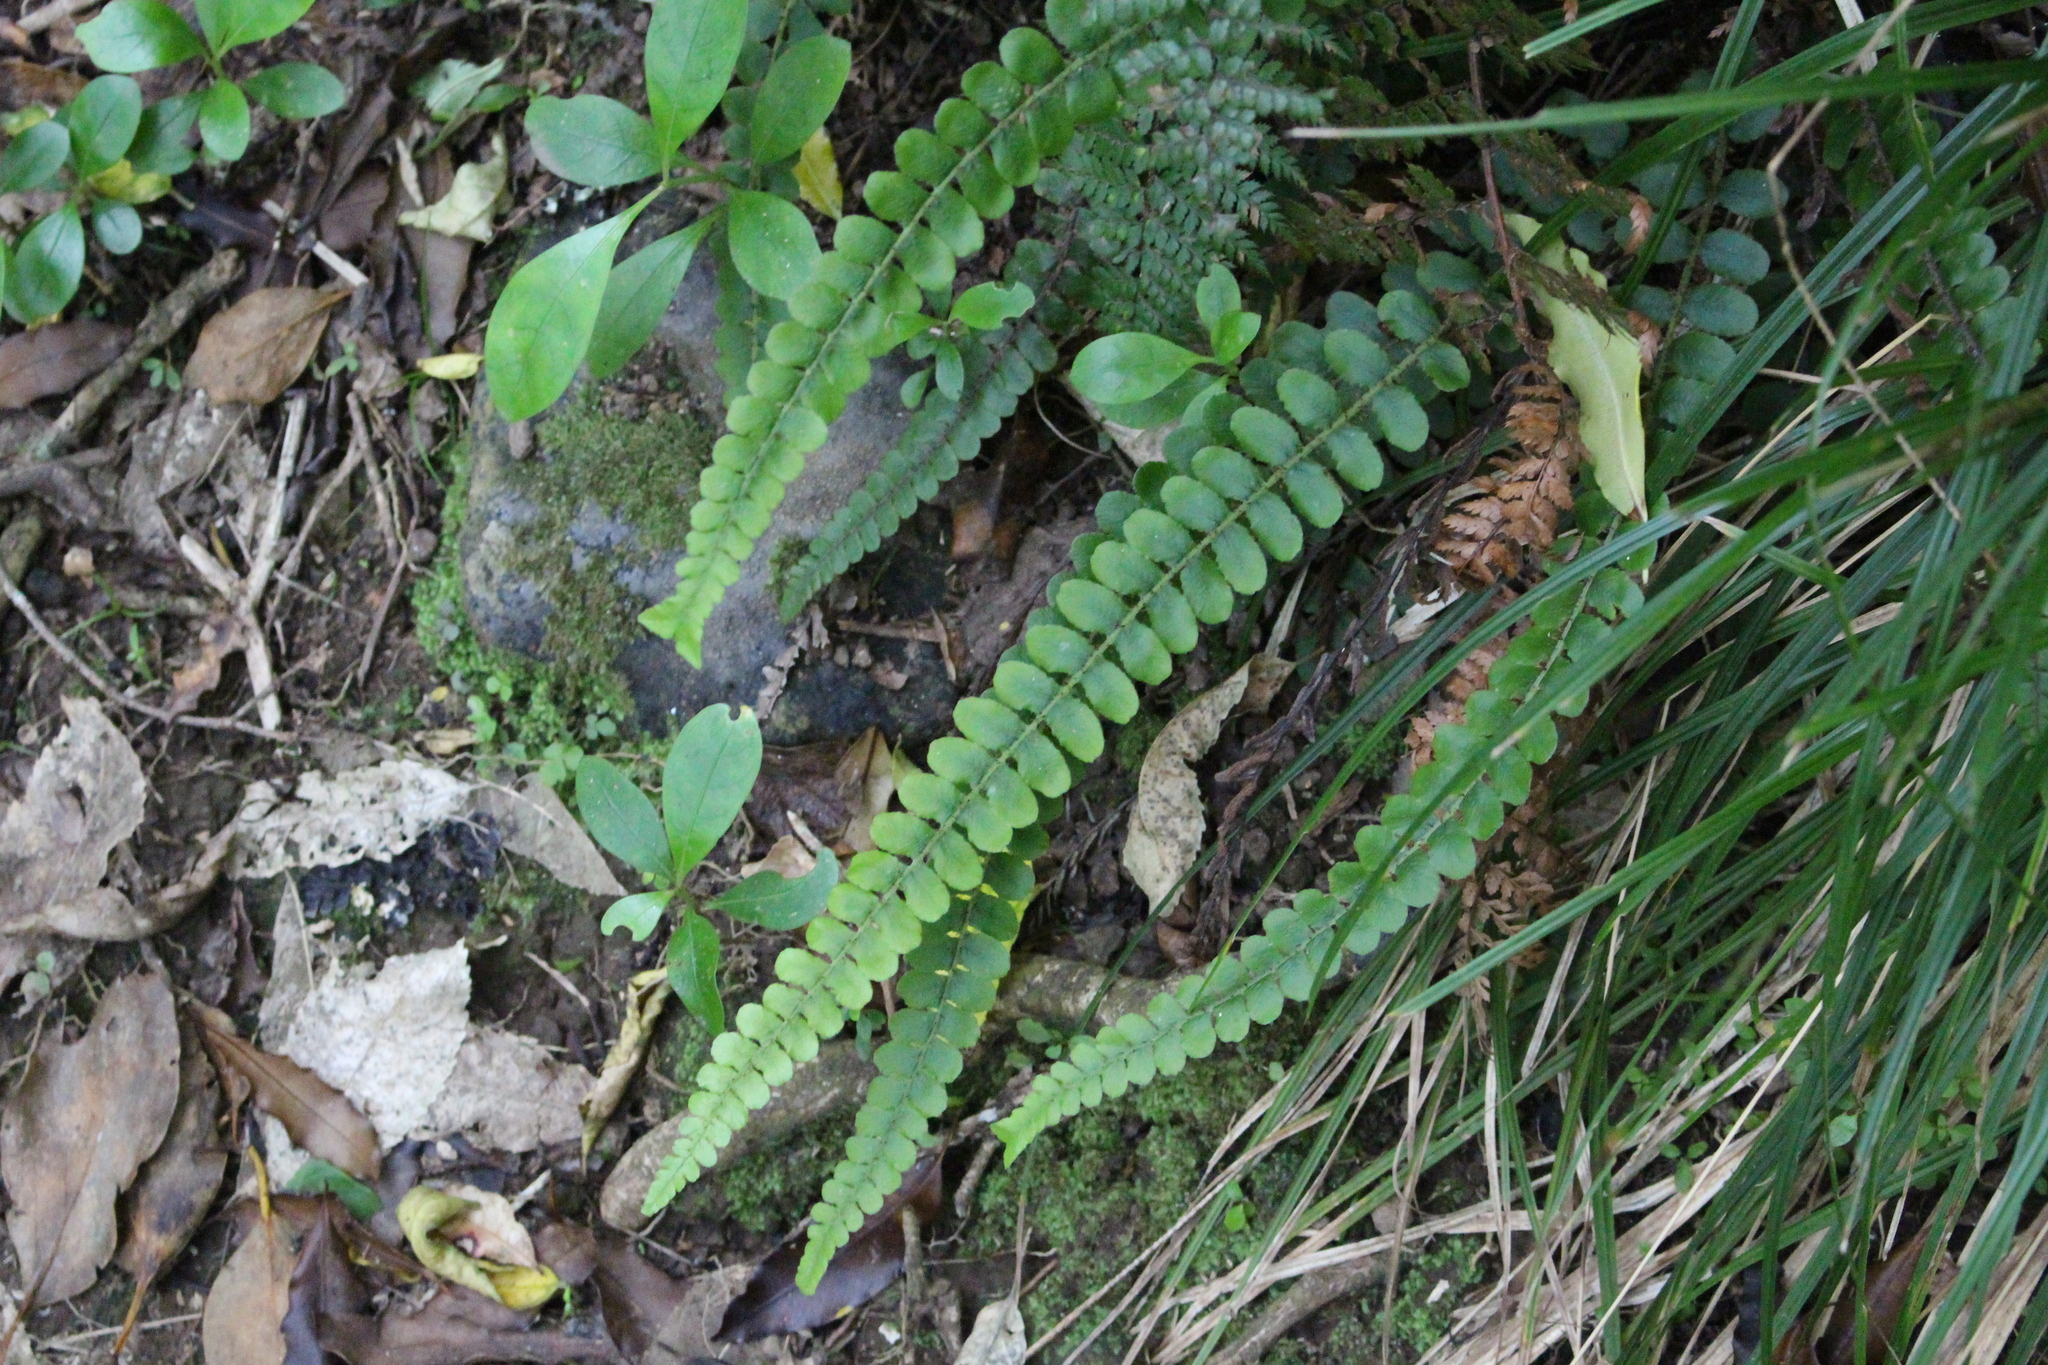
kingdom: Plantae
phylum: Tracheophyta
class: Polypodiopsida
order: Polypodiales
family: Blechnaceae
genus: Cranfillia
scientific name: Cranfillia fluviatilis
